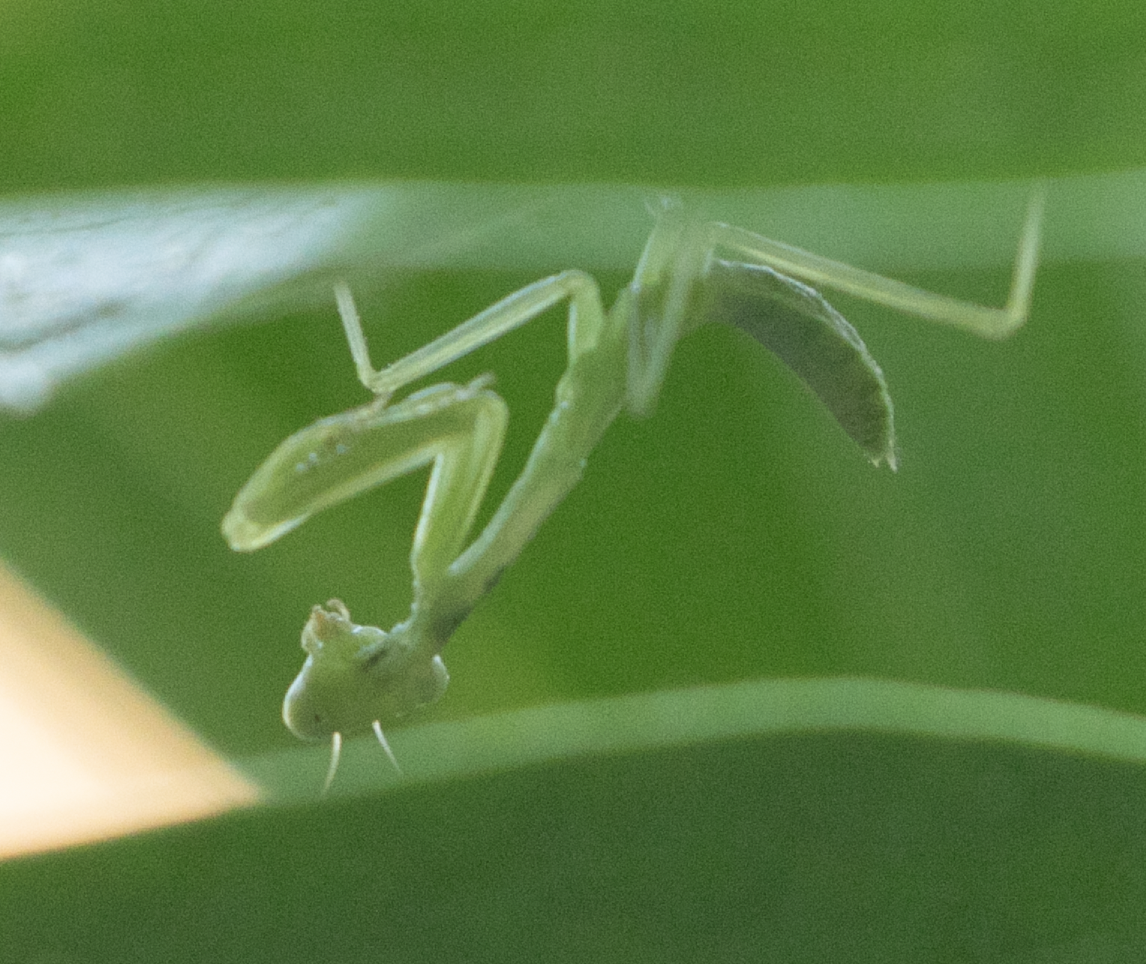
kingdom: Animalia
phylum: Arthropoda
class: Insecta
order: Mantodea
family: Mantidae
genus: Hierodula
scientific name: Hierodula transcaucasica
